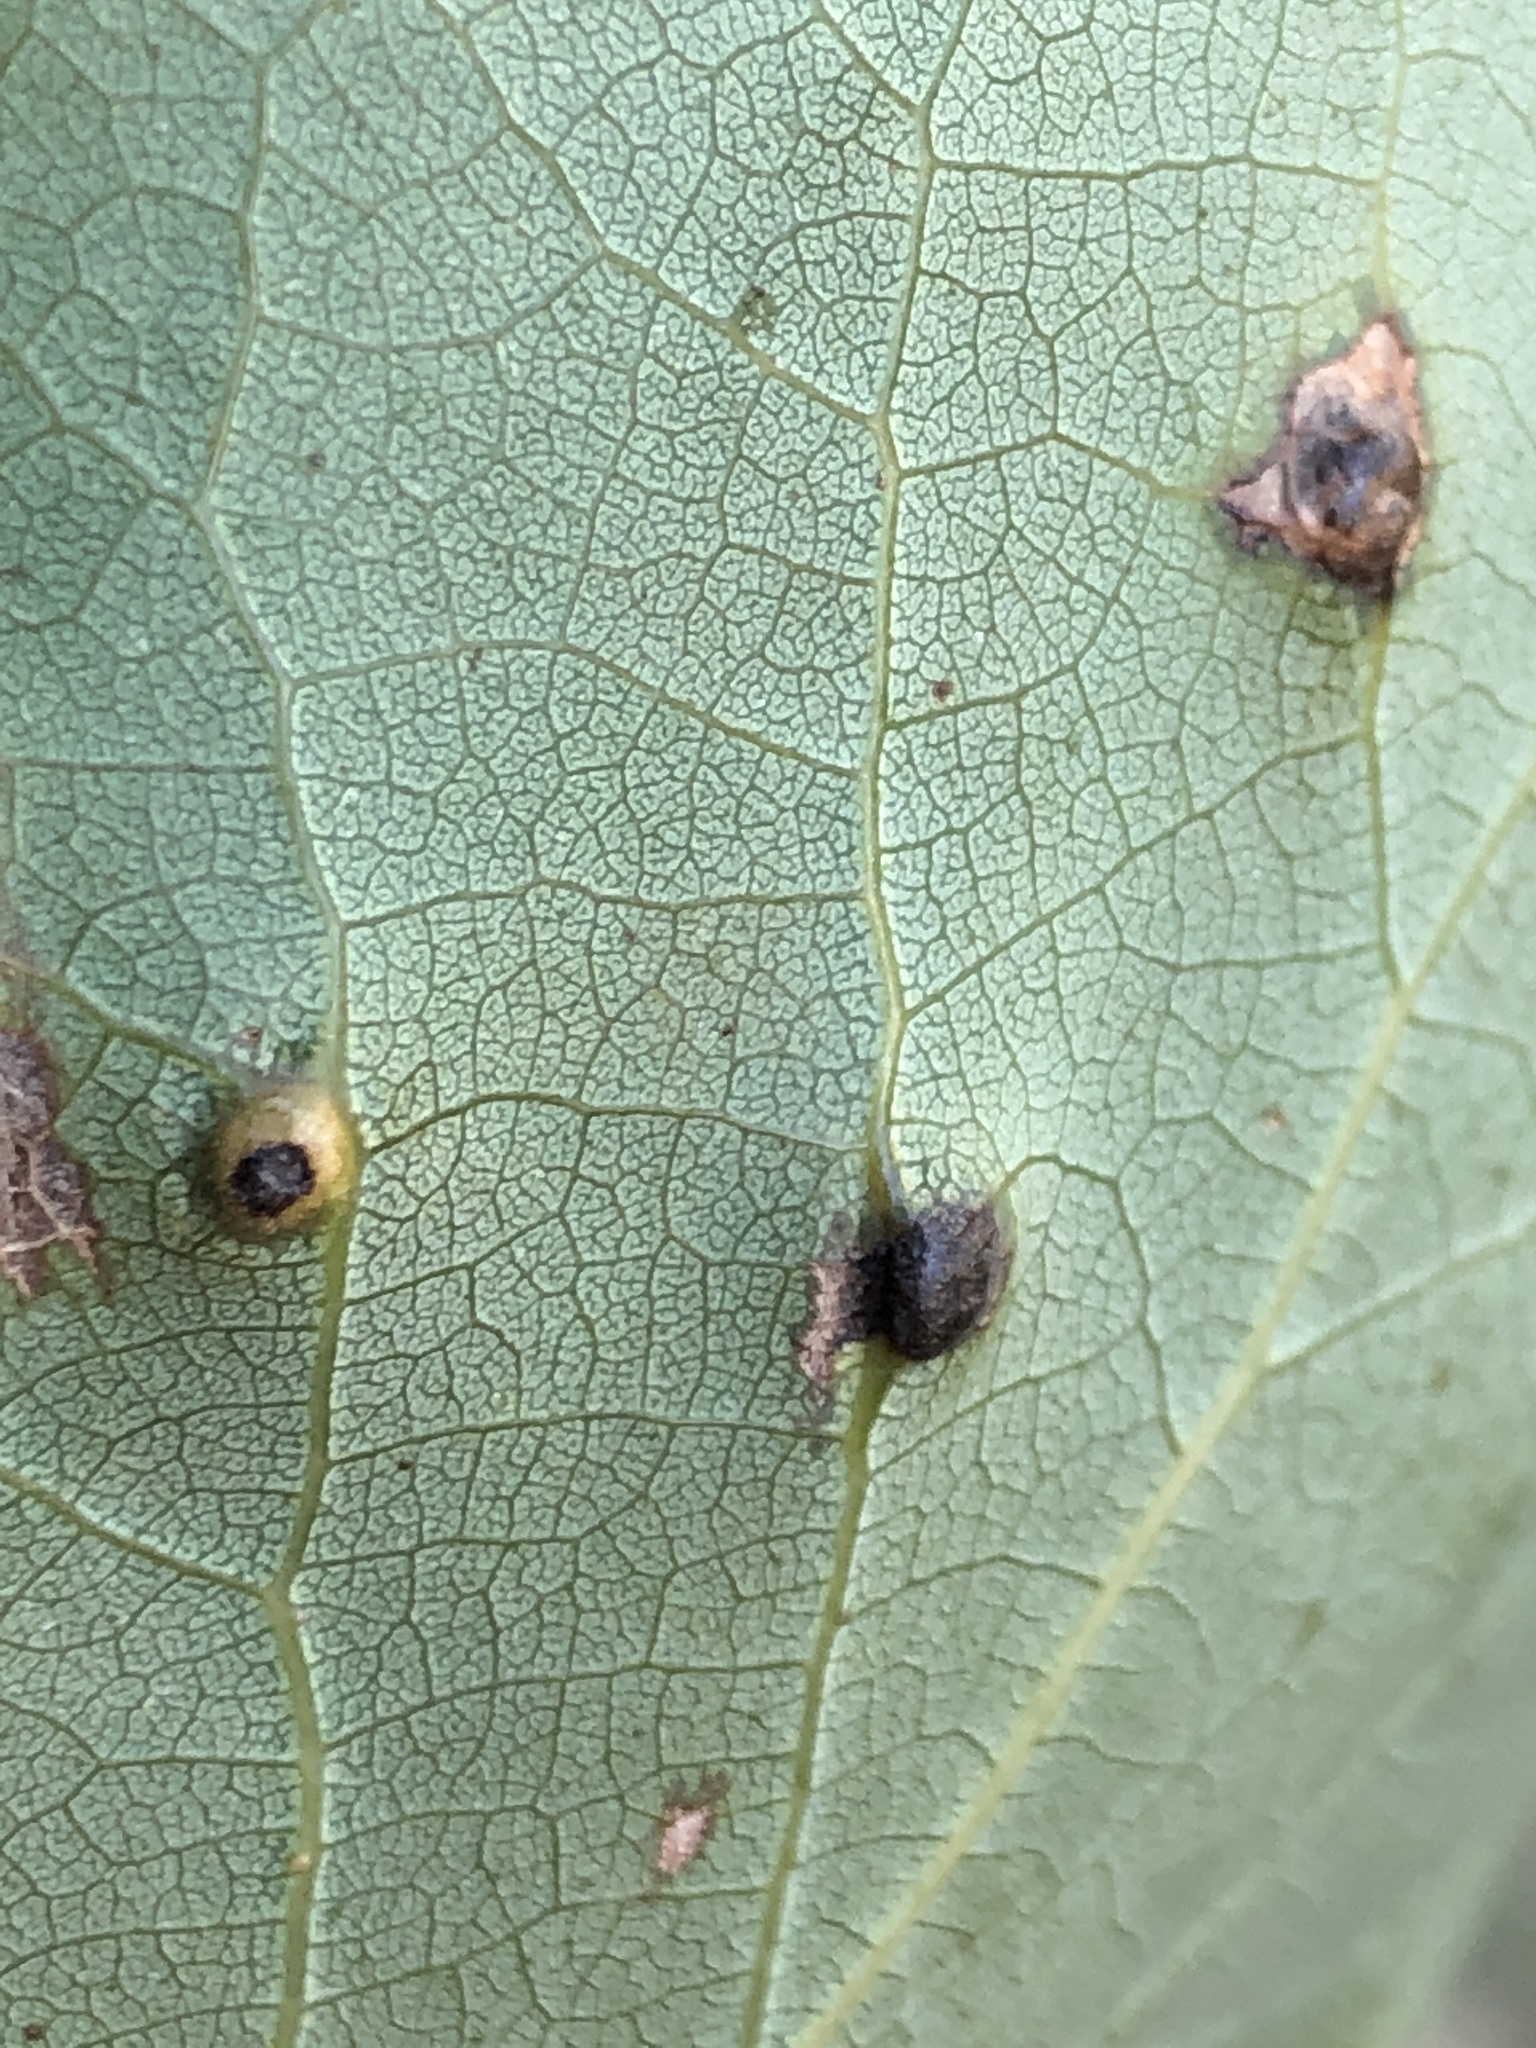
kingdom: Animalia
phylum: Arthropoda
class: Insecta
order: Diptera
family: Cecidomyiidae
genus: Harmandiola
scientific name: Harmandiola cavernosa
